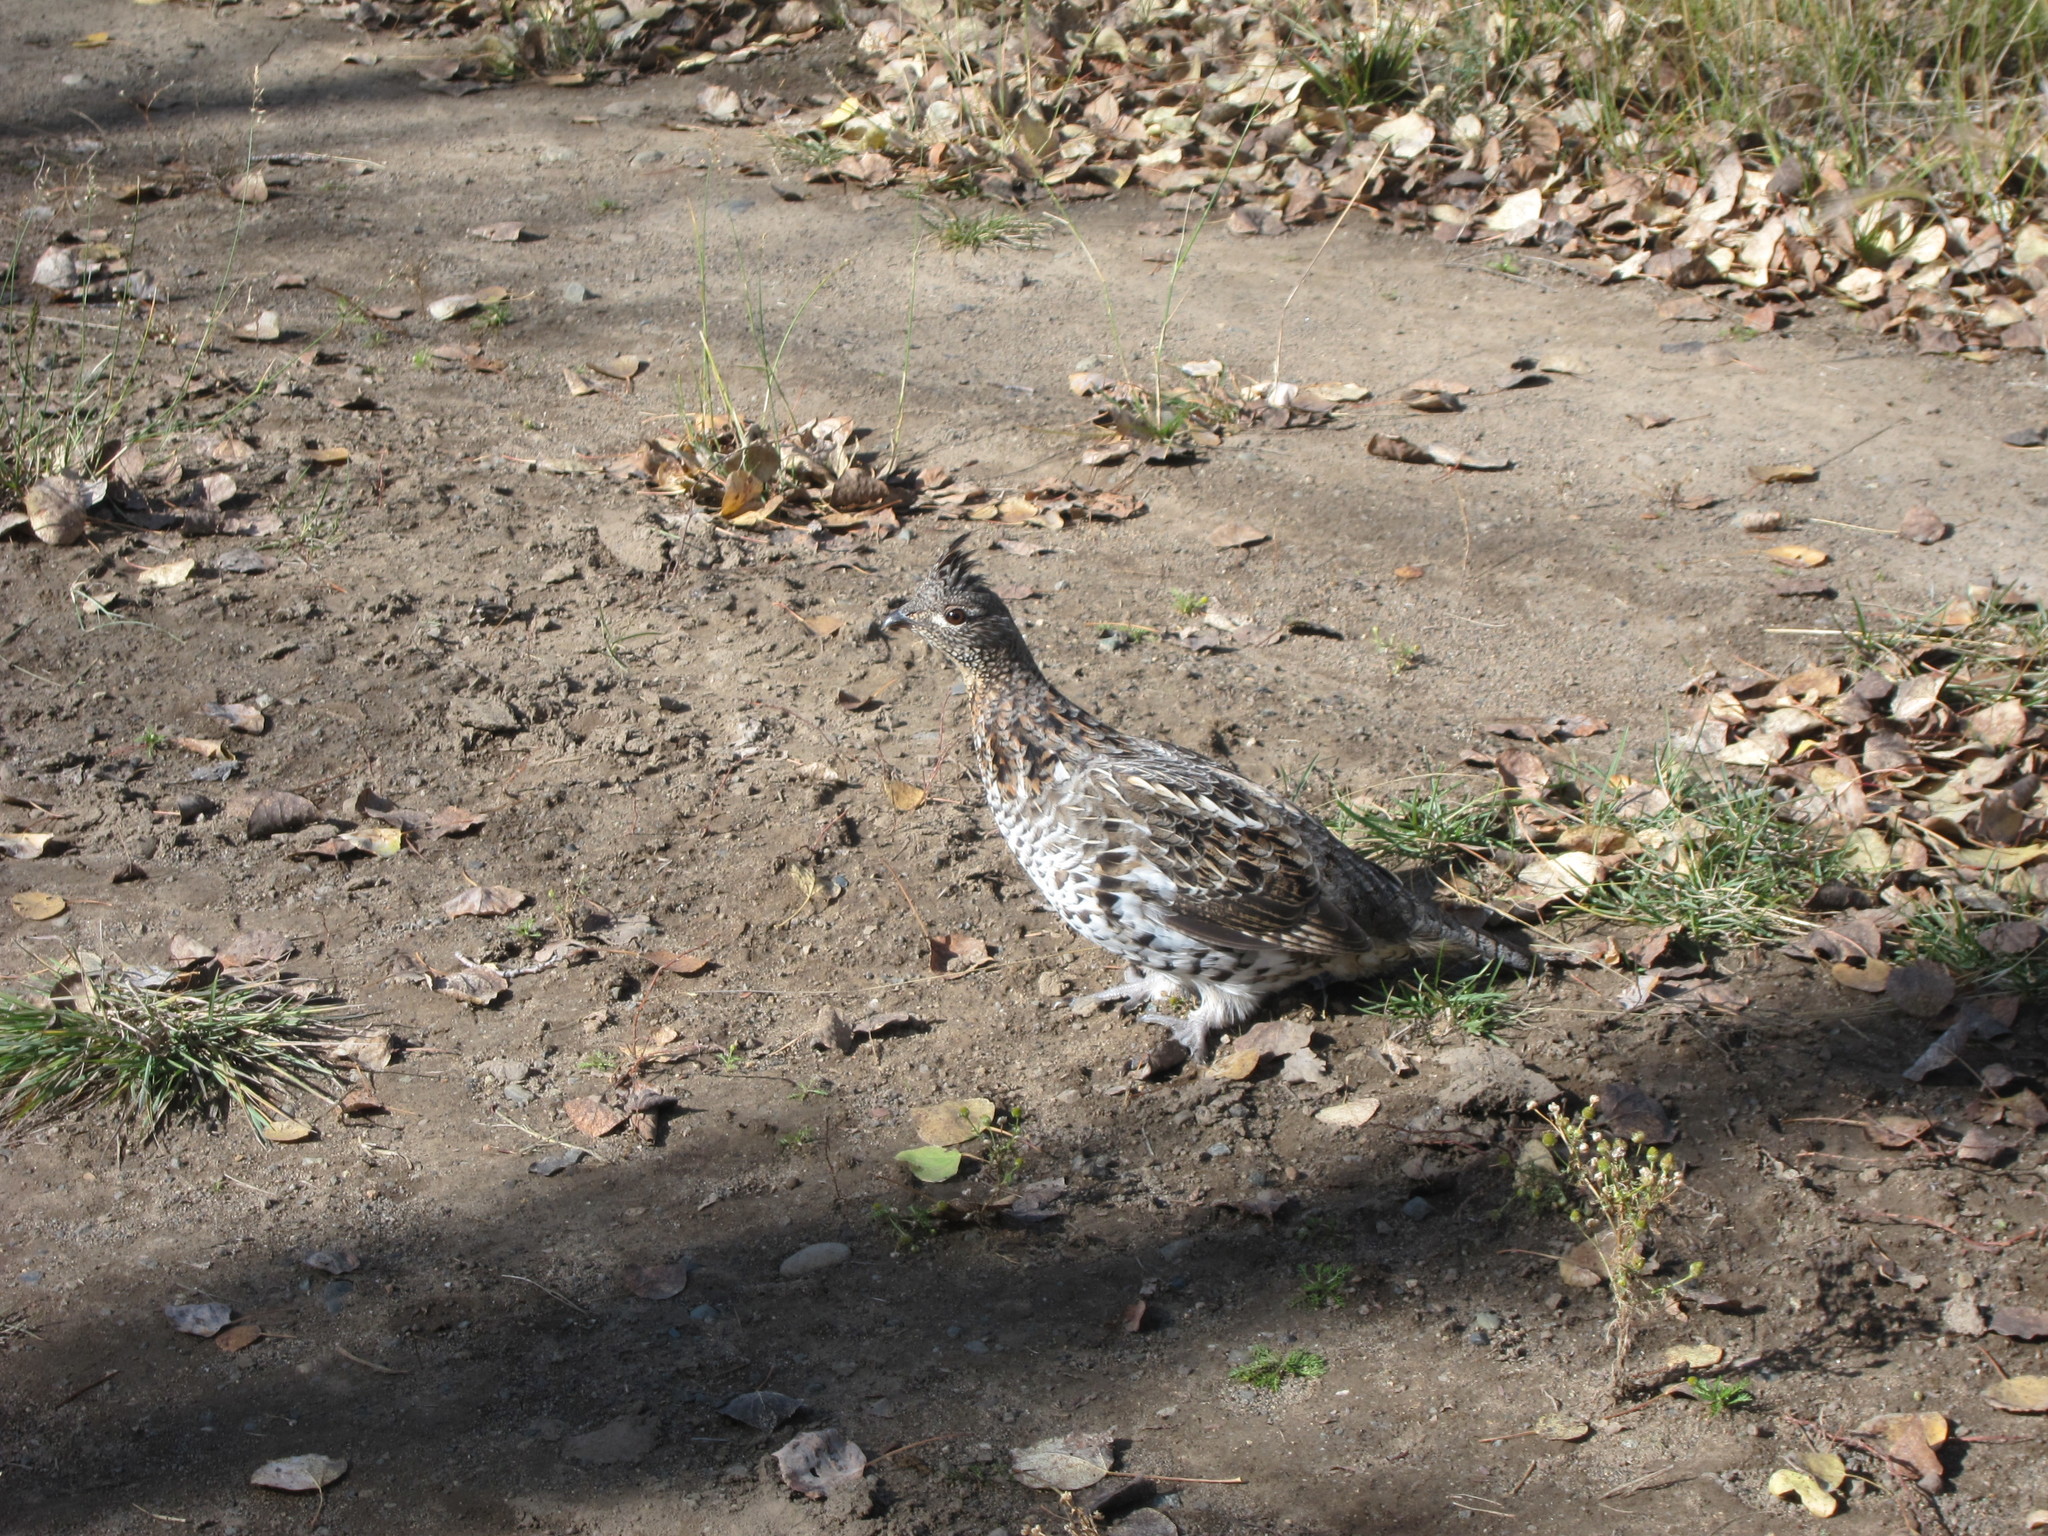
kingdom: Animalia
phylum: Chordata
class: Aves
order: Galliformes
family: Phasianidae
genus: Bonasa
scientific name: Bonasa umbellus
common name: Ruffed grouse
